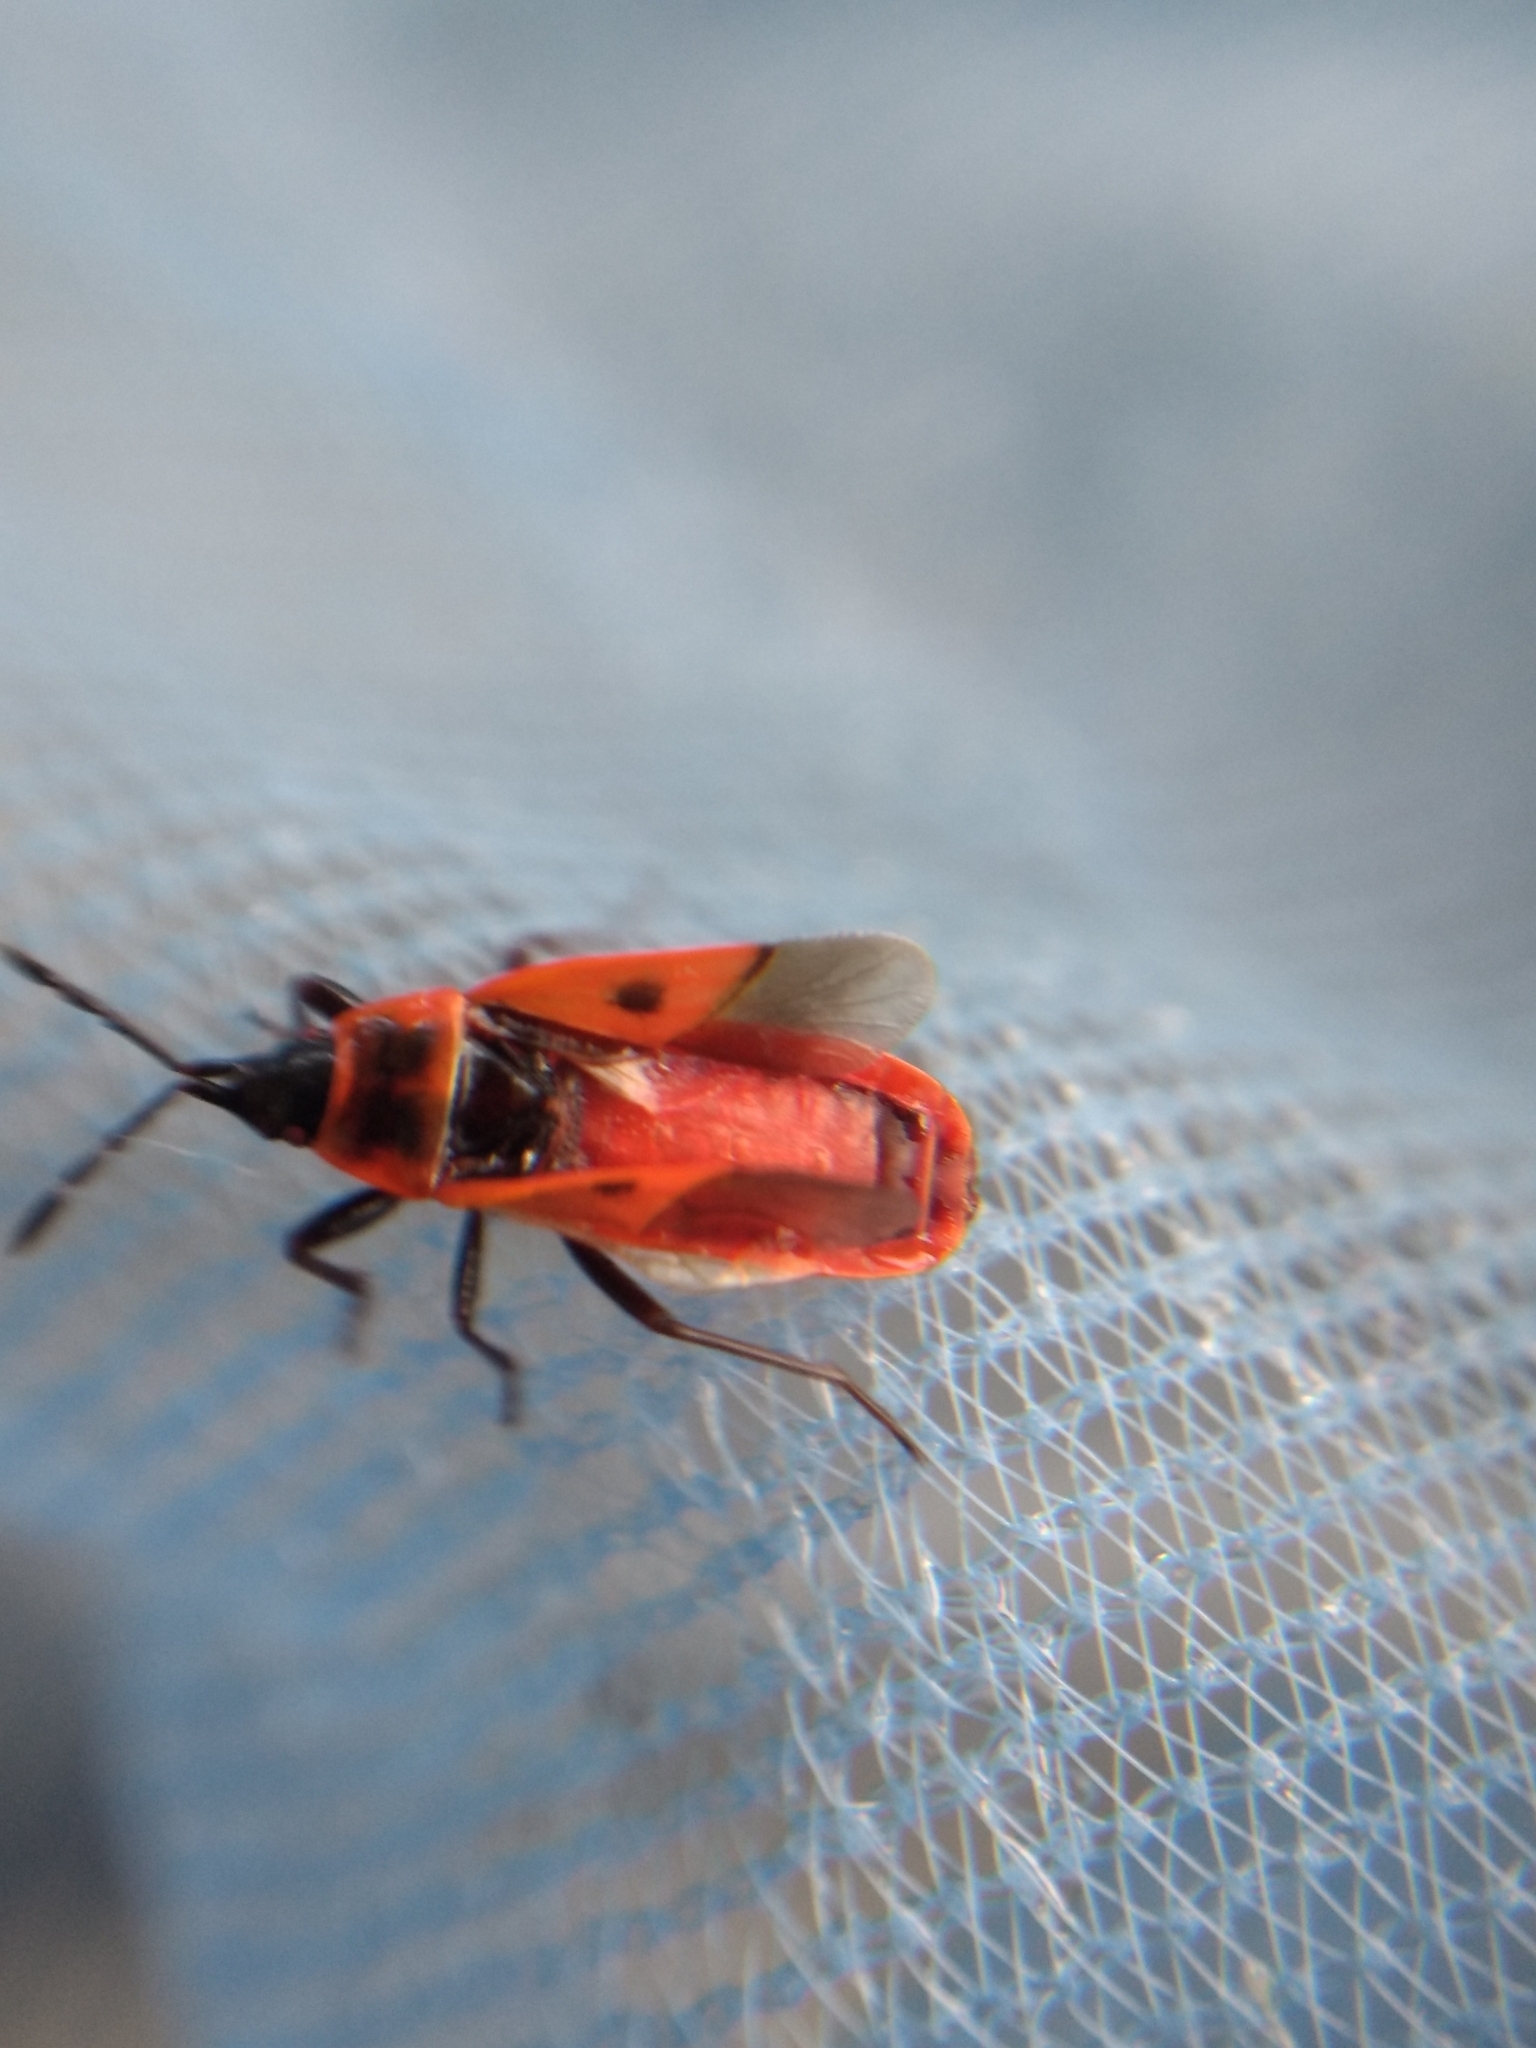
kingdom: Animalia
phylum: Arthropoda
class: Insecta
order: Hemiptera
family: Pyrrhocoridae
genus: Scantius
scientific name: Scantius aegyptius
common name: Red bug
